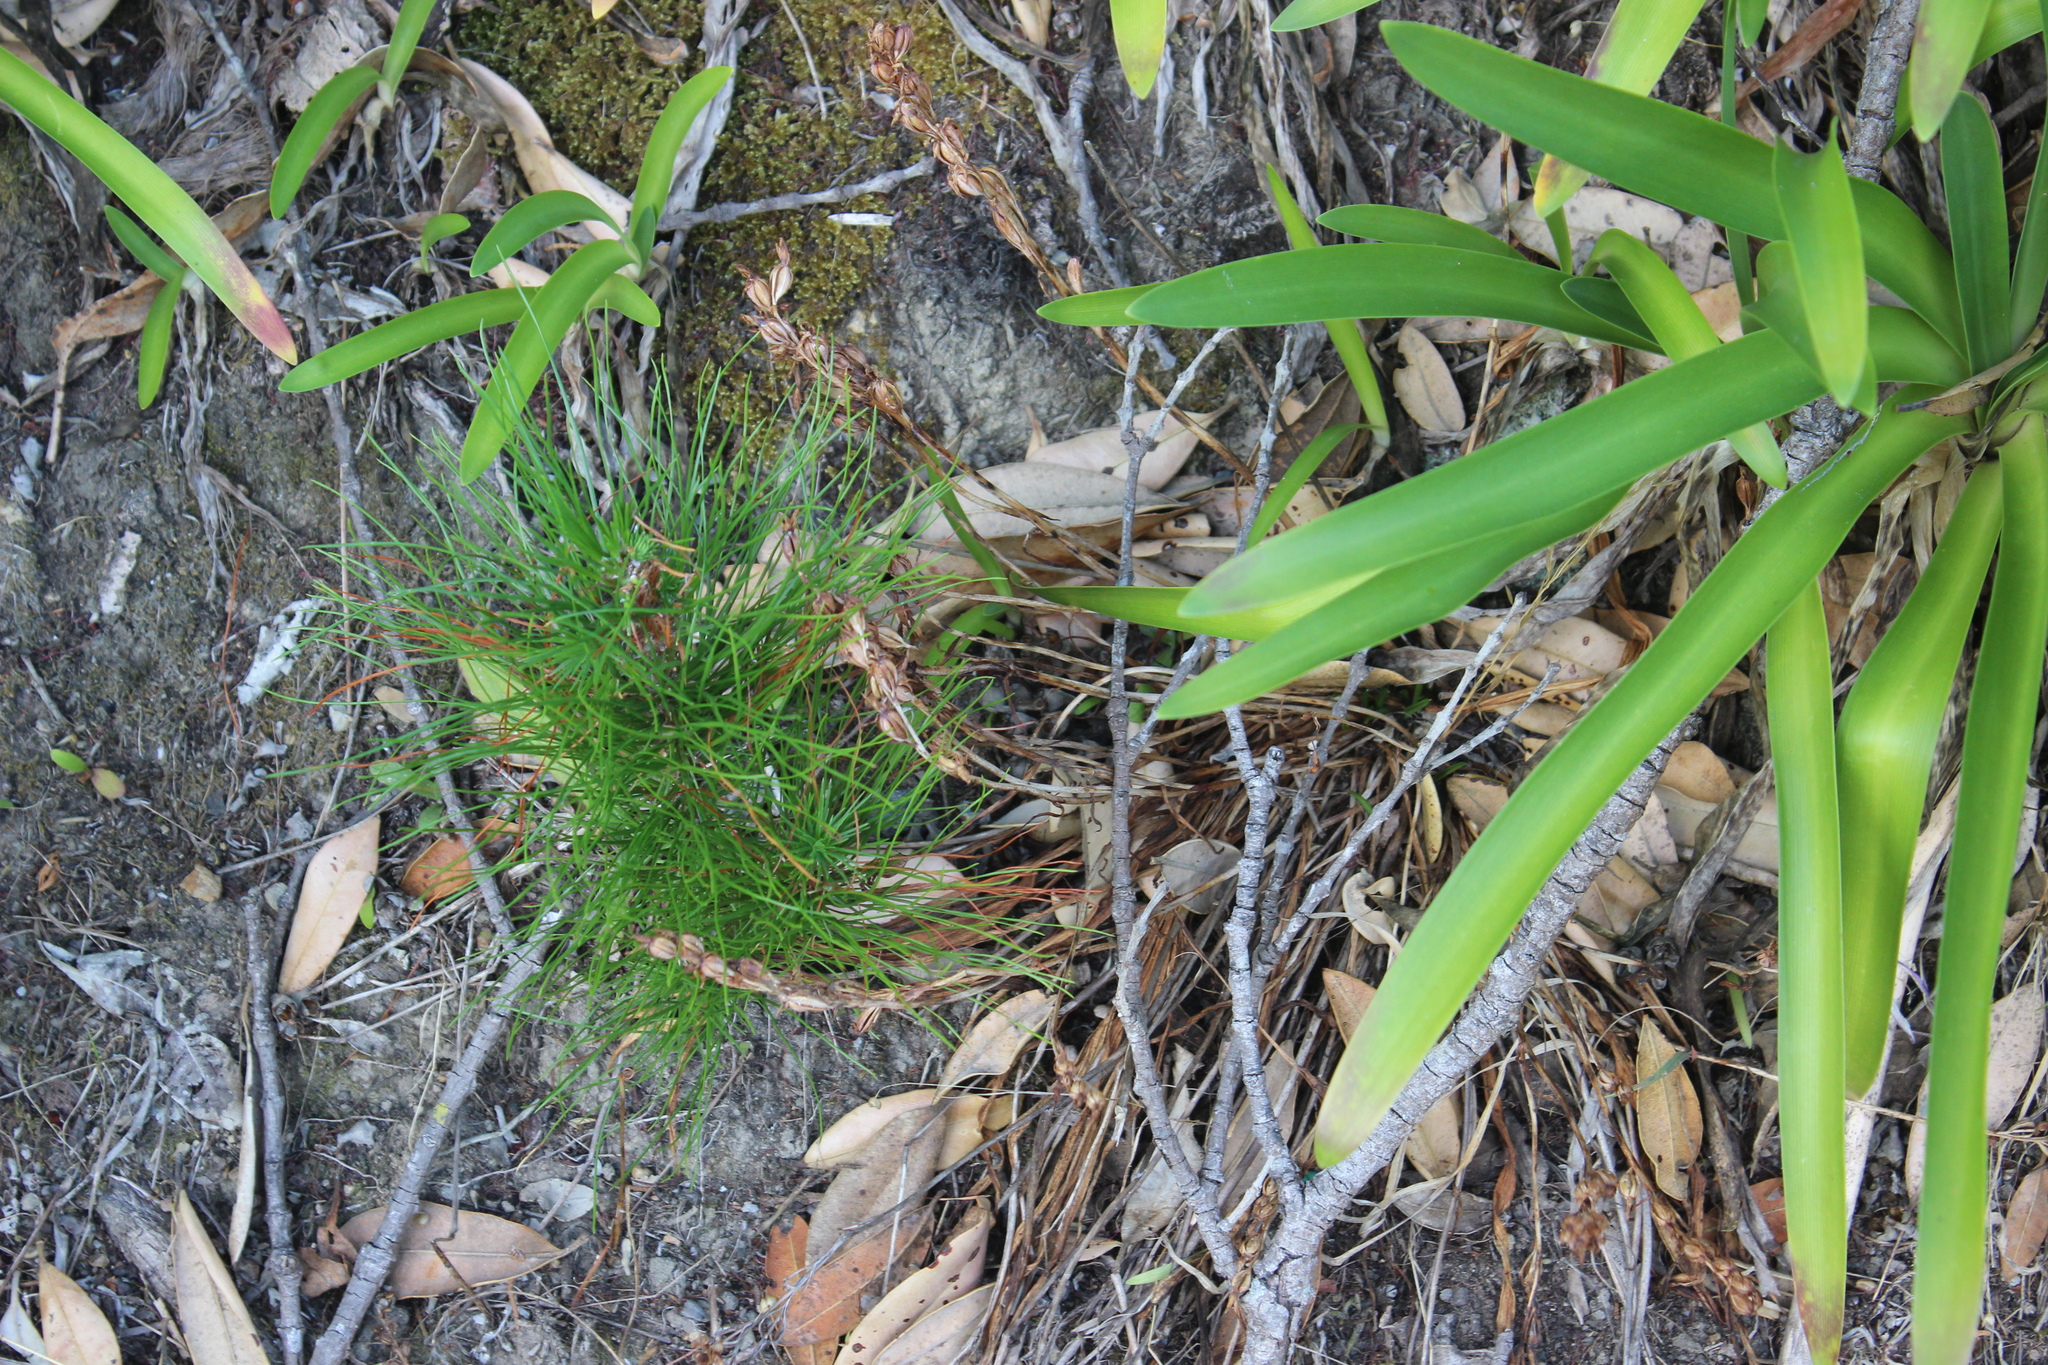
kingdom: Plantae
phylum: Tracheophyta
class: Pinopsida
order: Pinales
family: Pinaceae
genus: Pinus
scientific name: Pinus radiata
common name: Monterey pine
